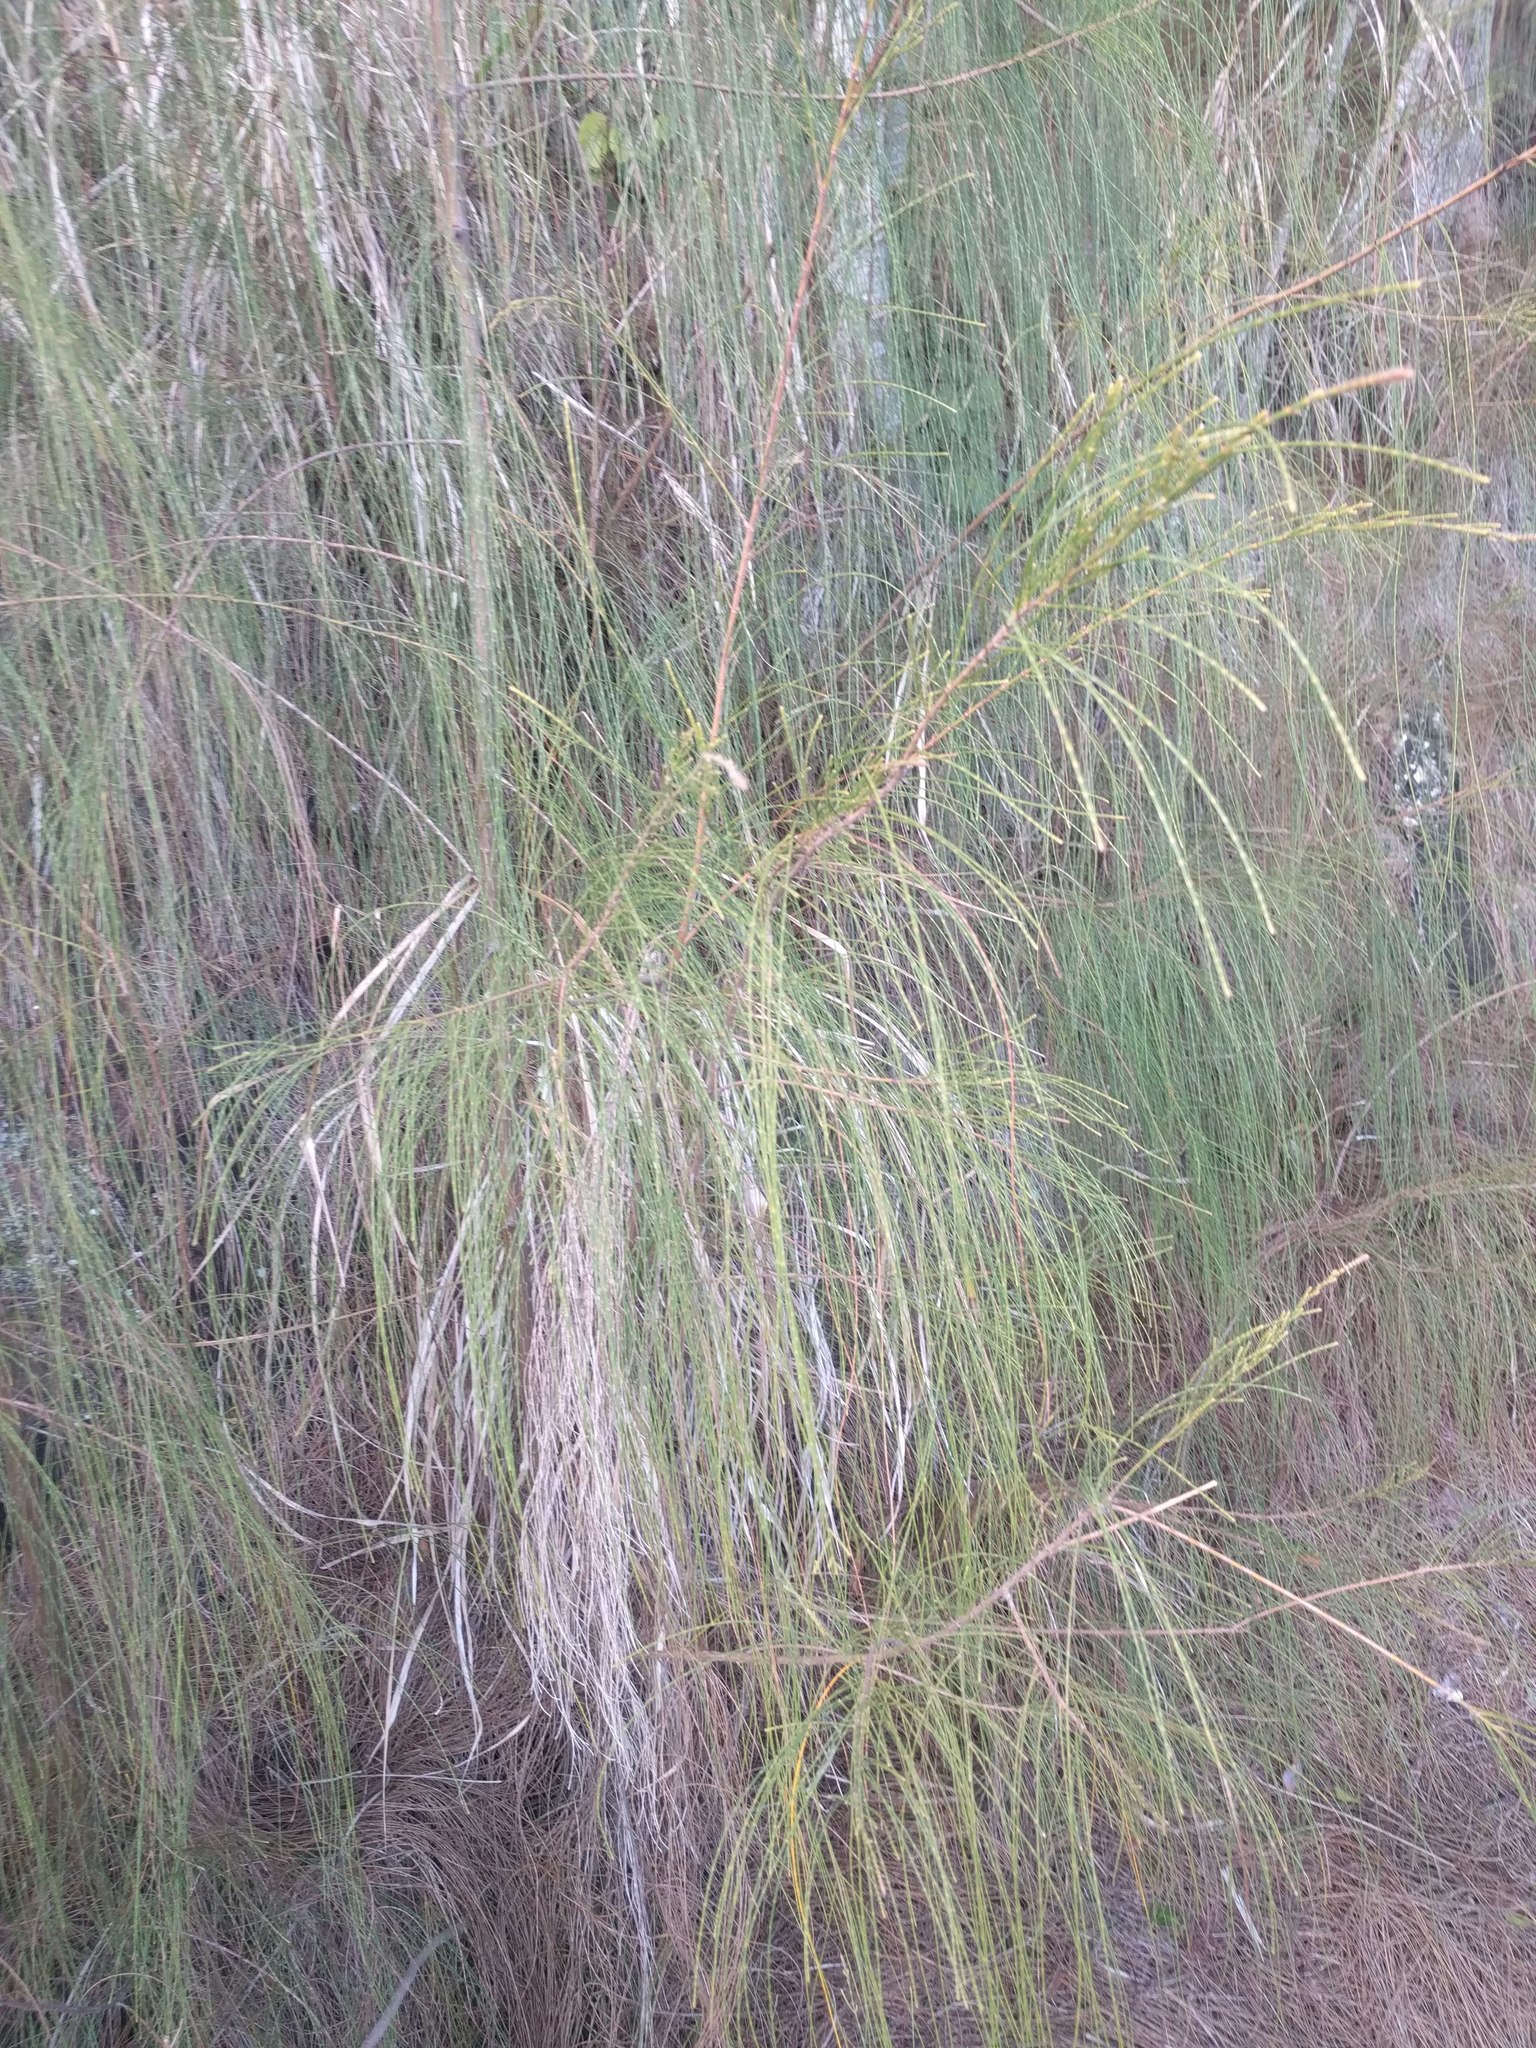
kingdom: Plantae
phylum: Tracheophyta
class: Magnoliopsida
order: Fagales
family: Casuarinaceae
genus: Casuarina
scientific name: Casuarina equisetifolia
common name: Beach sheoak
